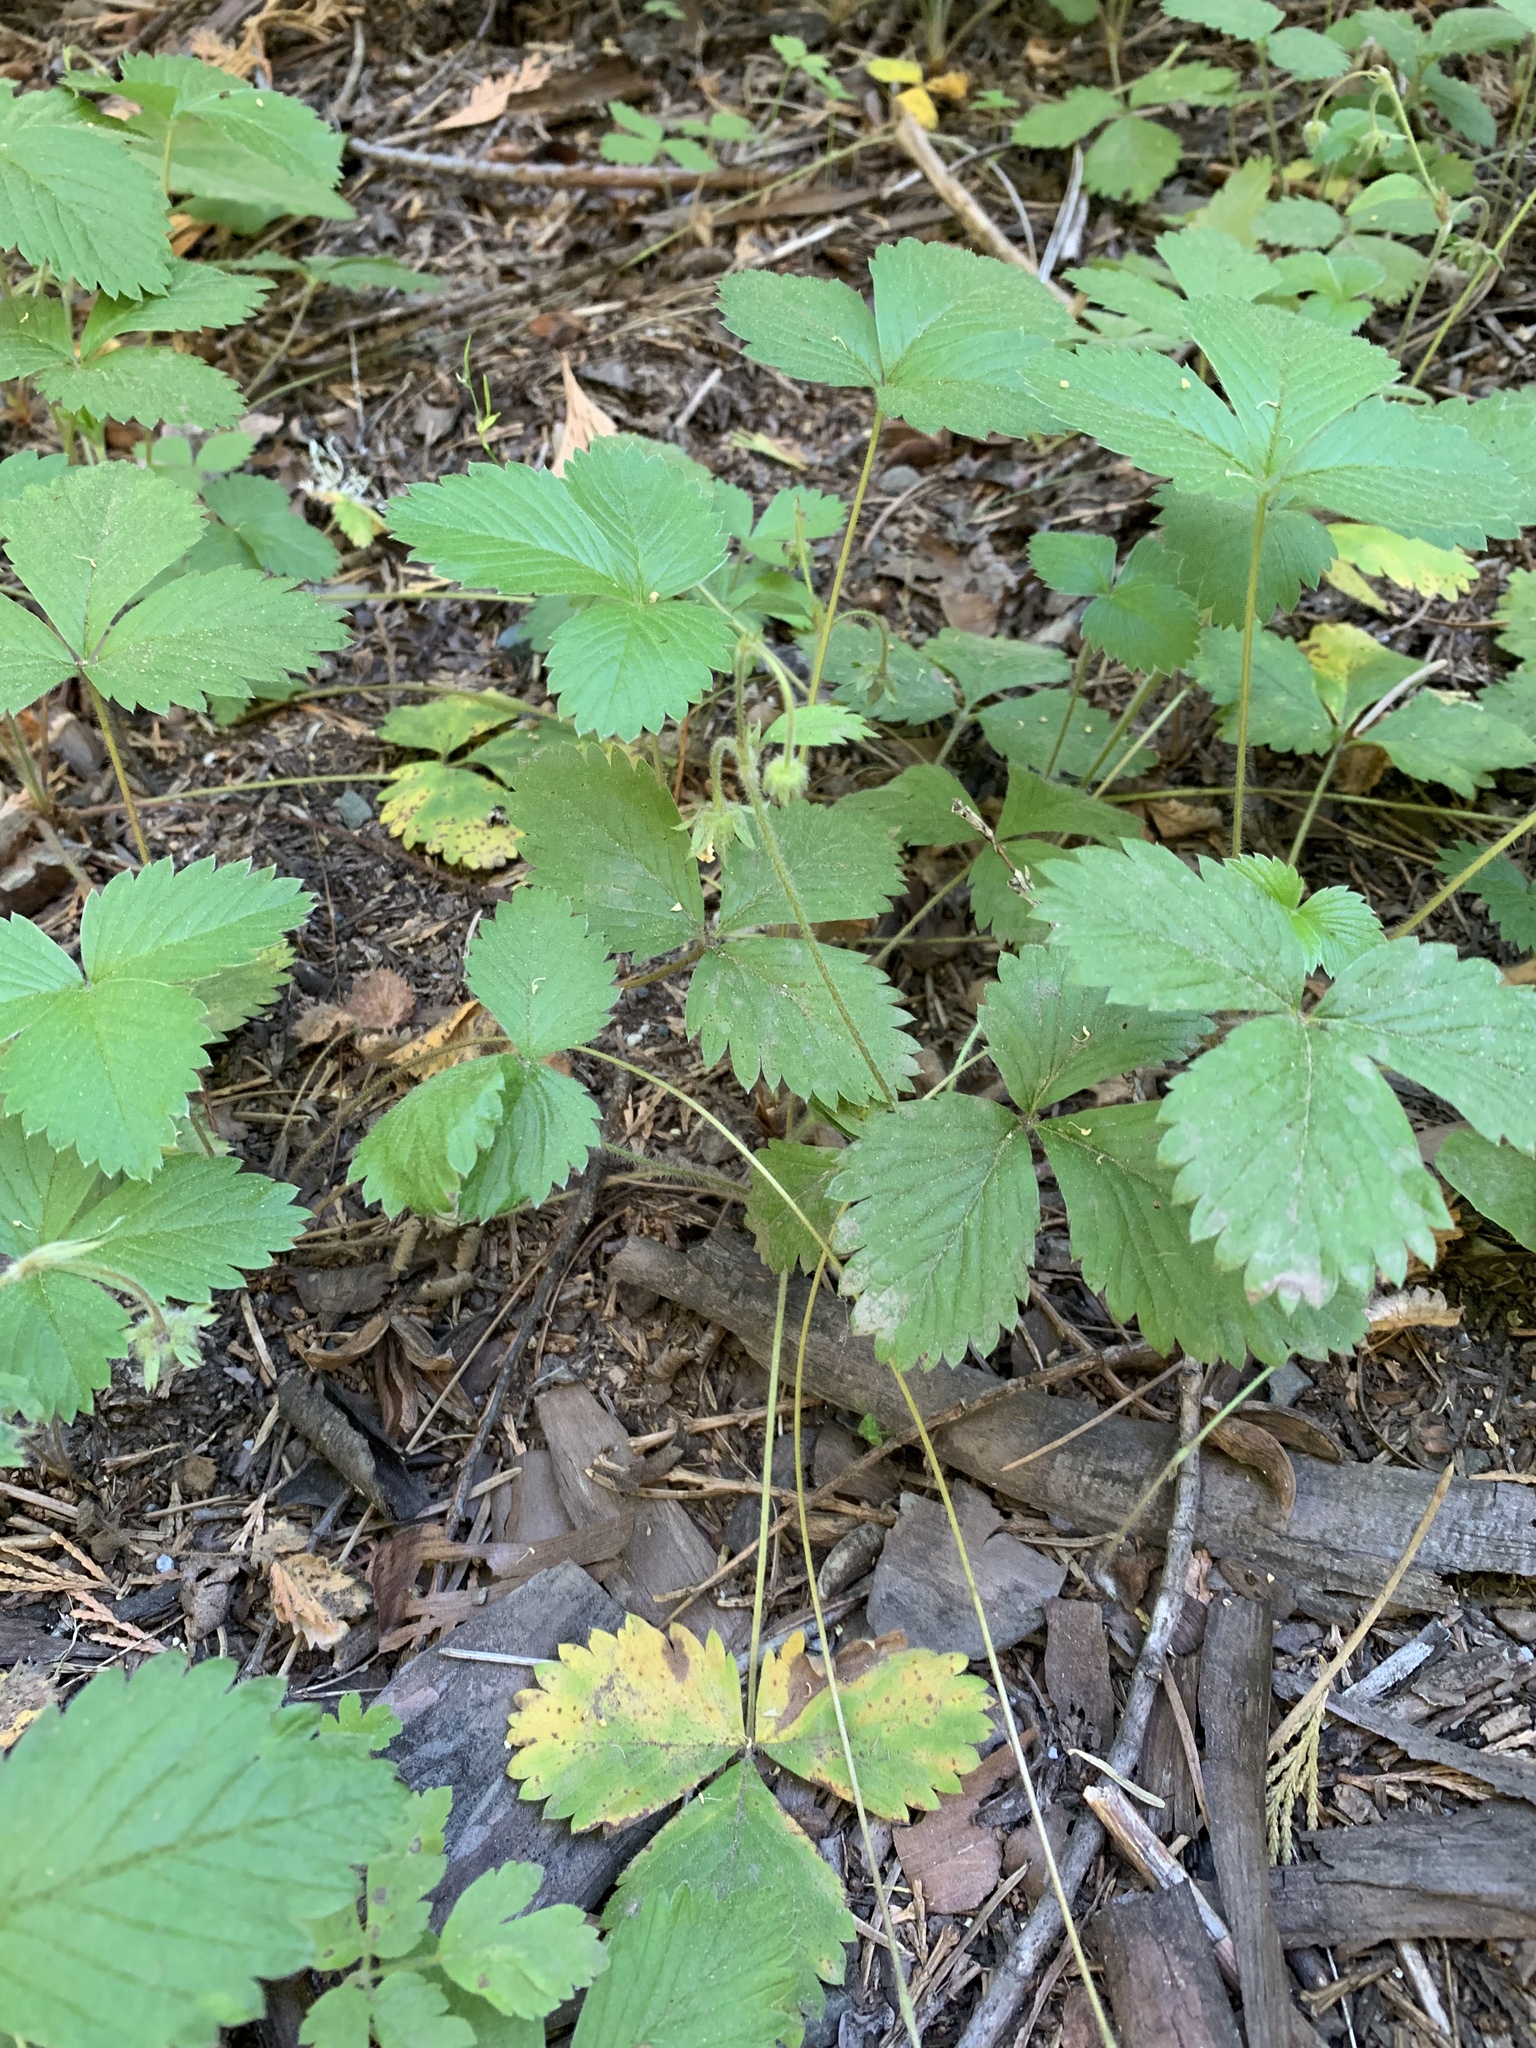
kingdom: Plantae
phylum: Tracheophyta
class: Magnoliopsida
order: Rosales
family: Rosaceae
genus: Fragaria
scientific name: Fragaria vesca
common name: Wild strawberry
